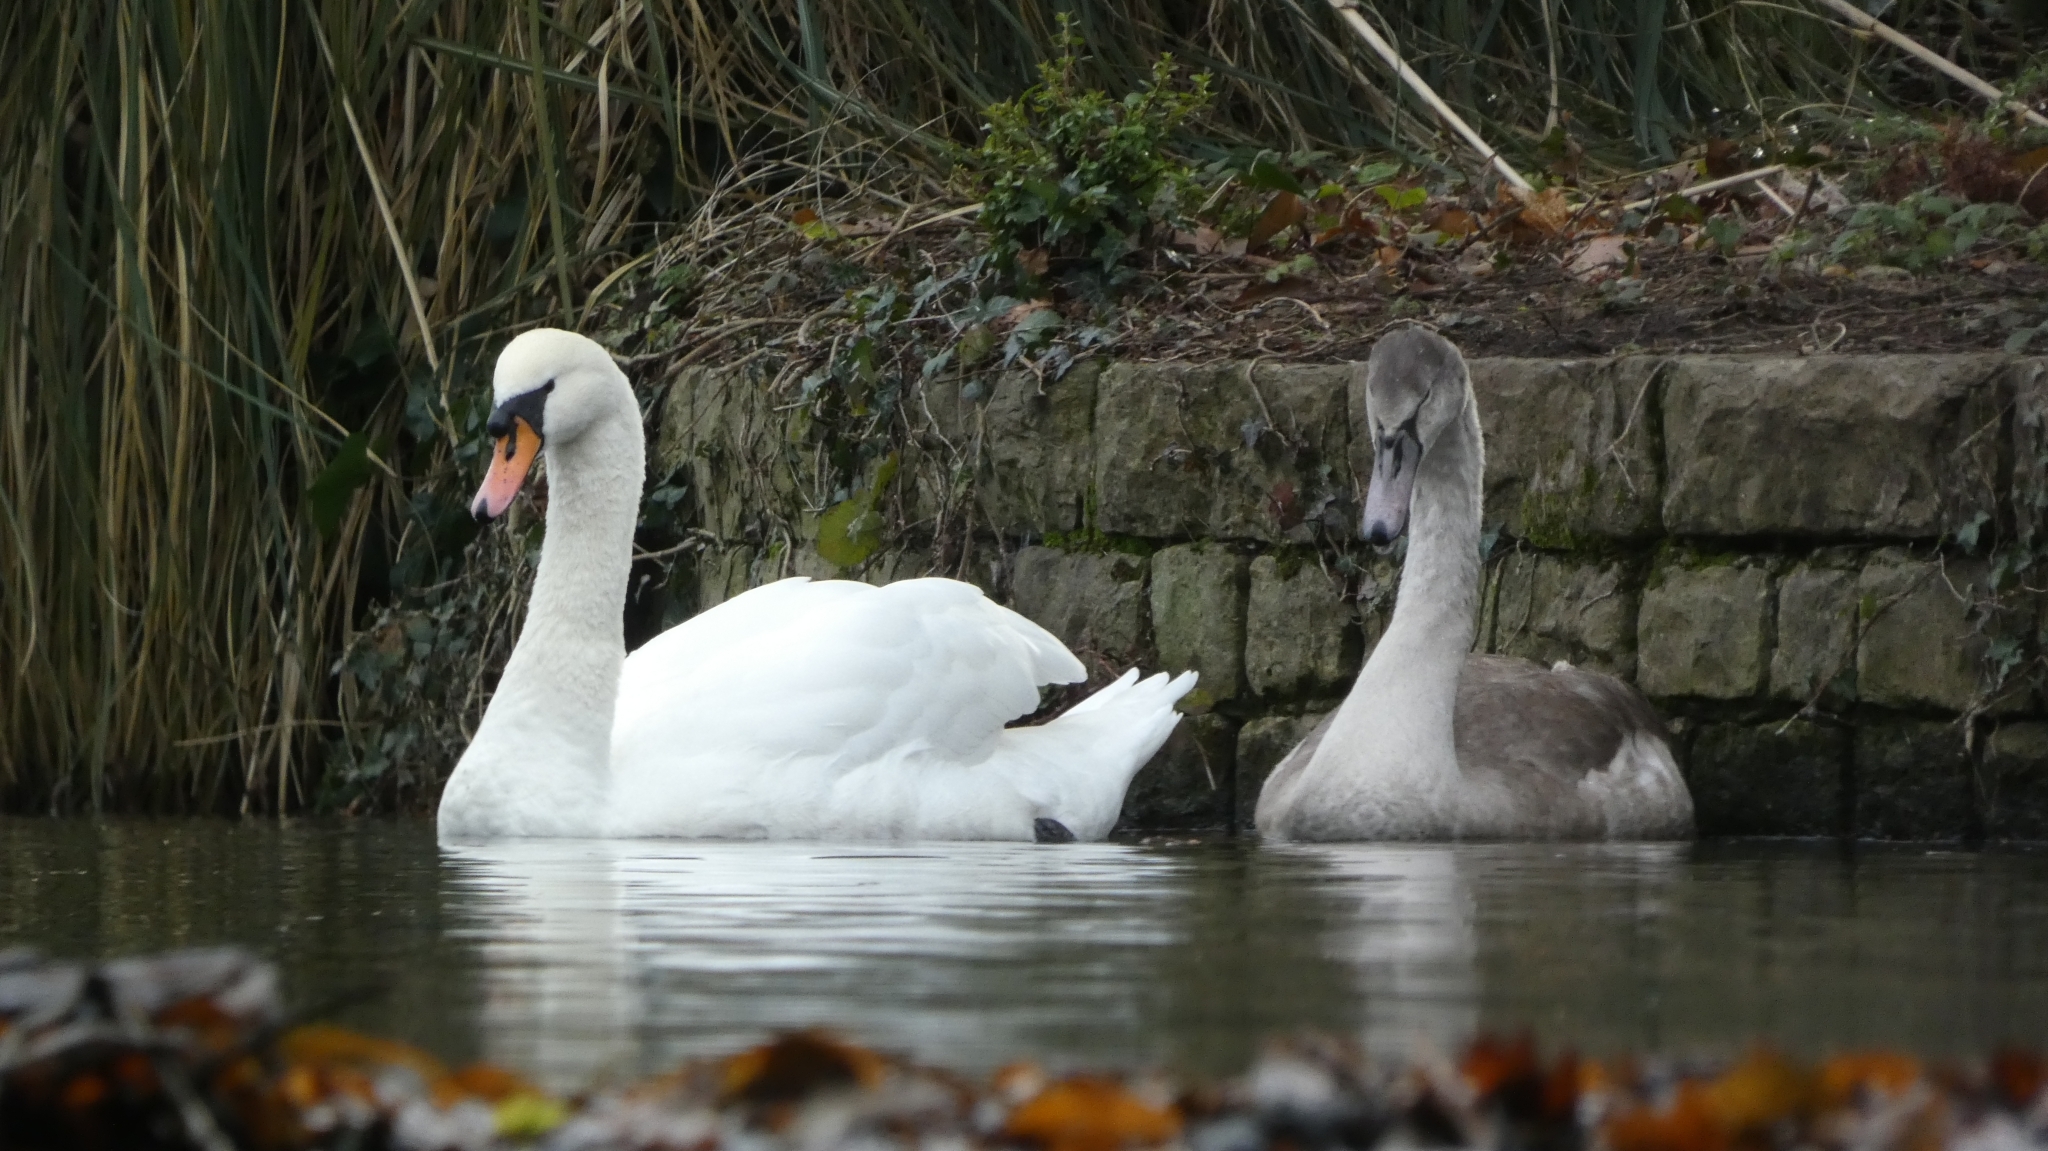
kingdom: Animalia
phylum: Chordata
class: Aves
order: Anseriformes
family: Anatidae
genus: Cygnus
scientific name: Cygnus olor
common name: Mute swan
